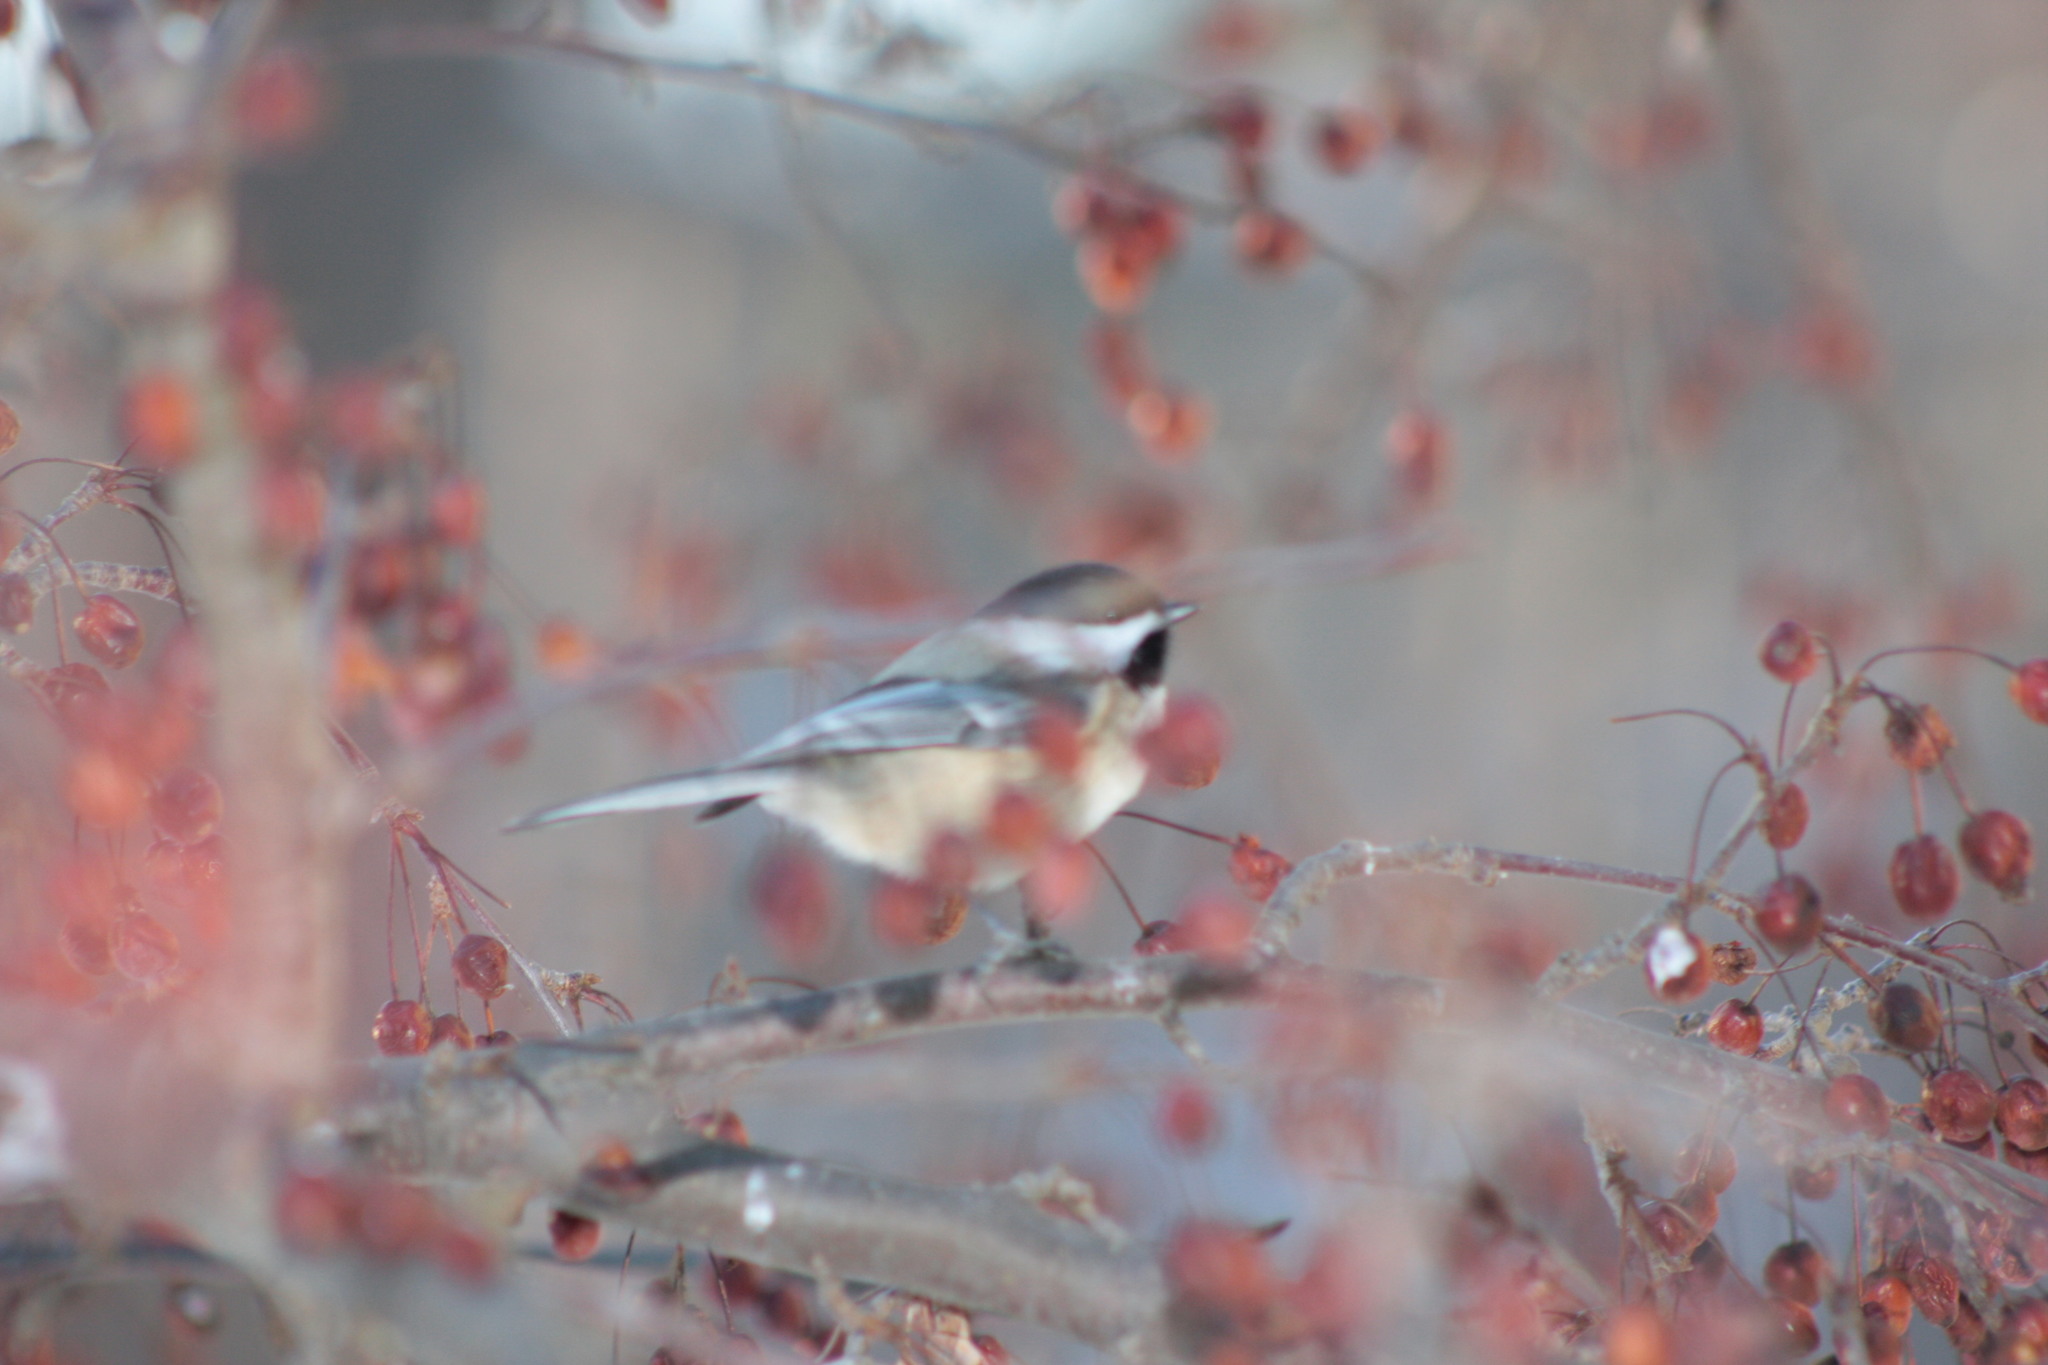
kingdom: Animalia
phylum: Chordata
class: Aves
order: Passeriformes
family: Paridae
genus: Poecile
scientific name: Poecile atricapillus
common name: Black-capped chickadee
